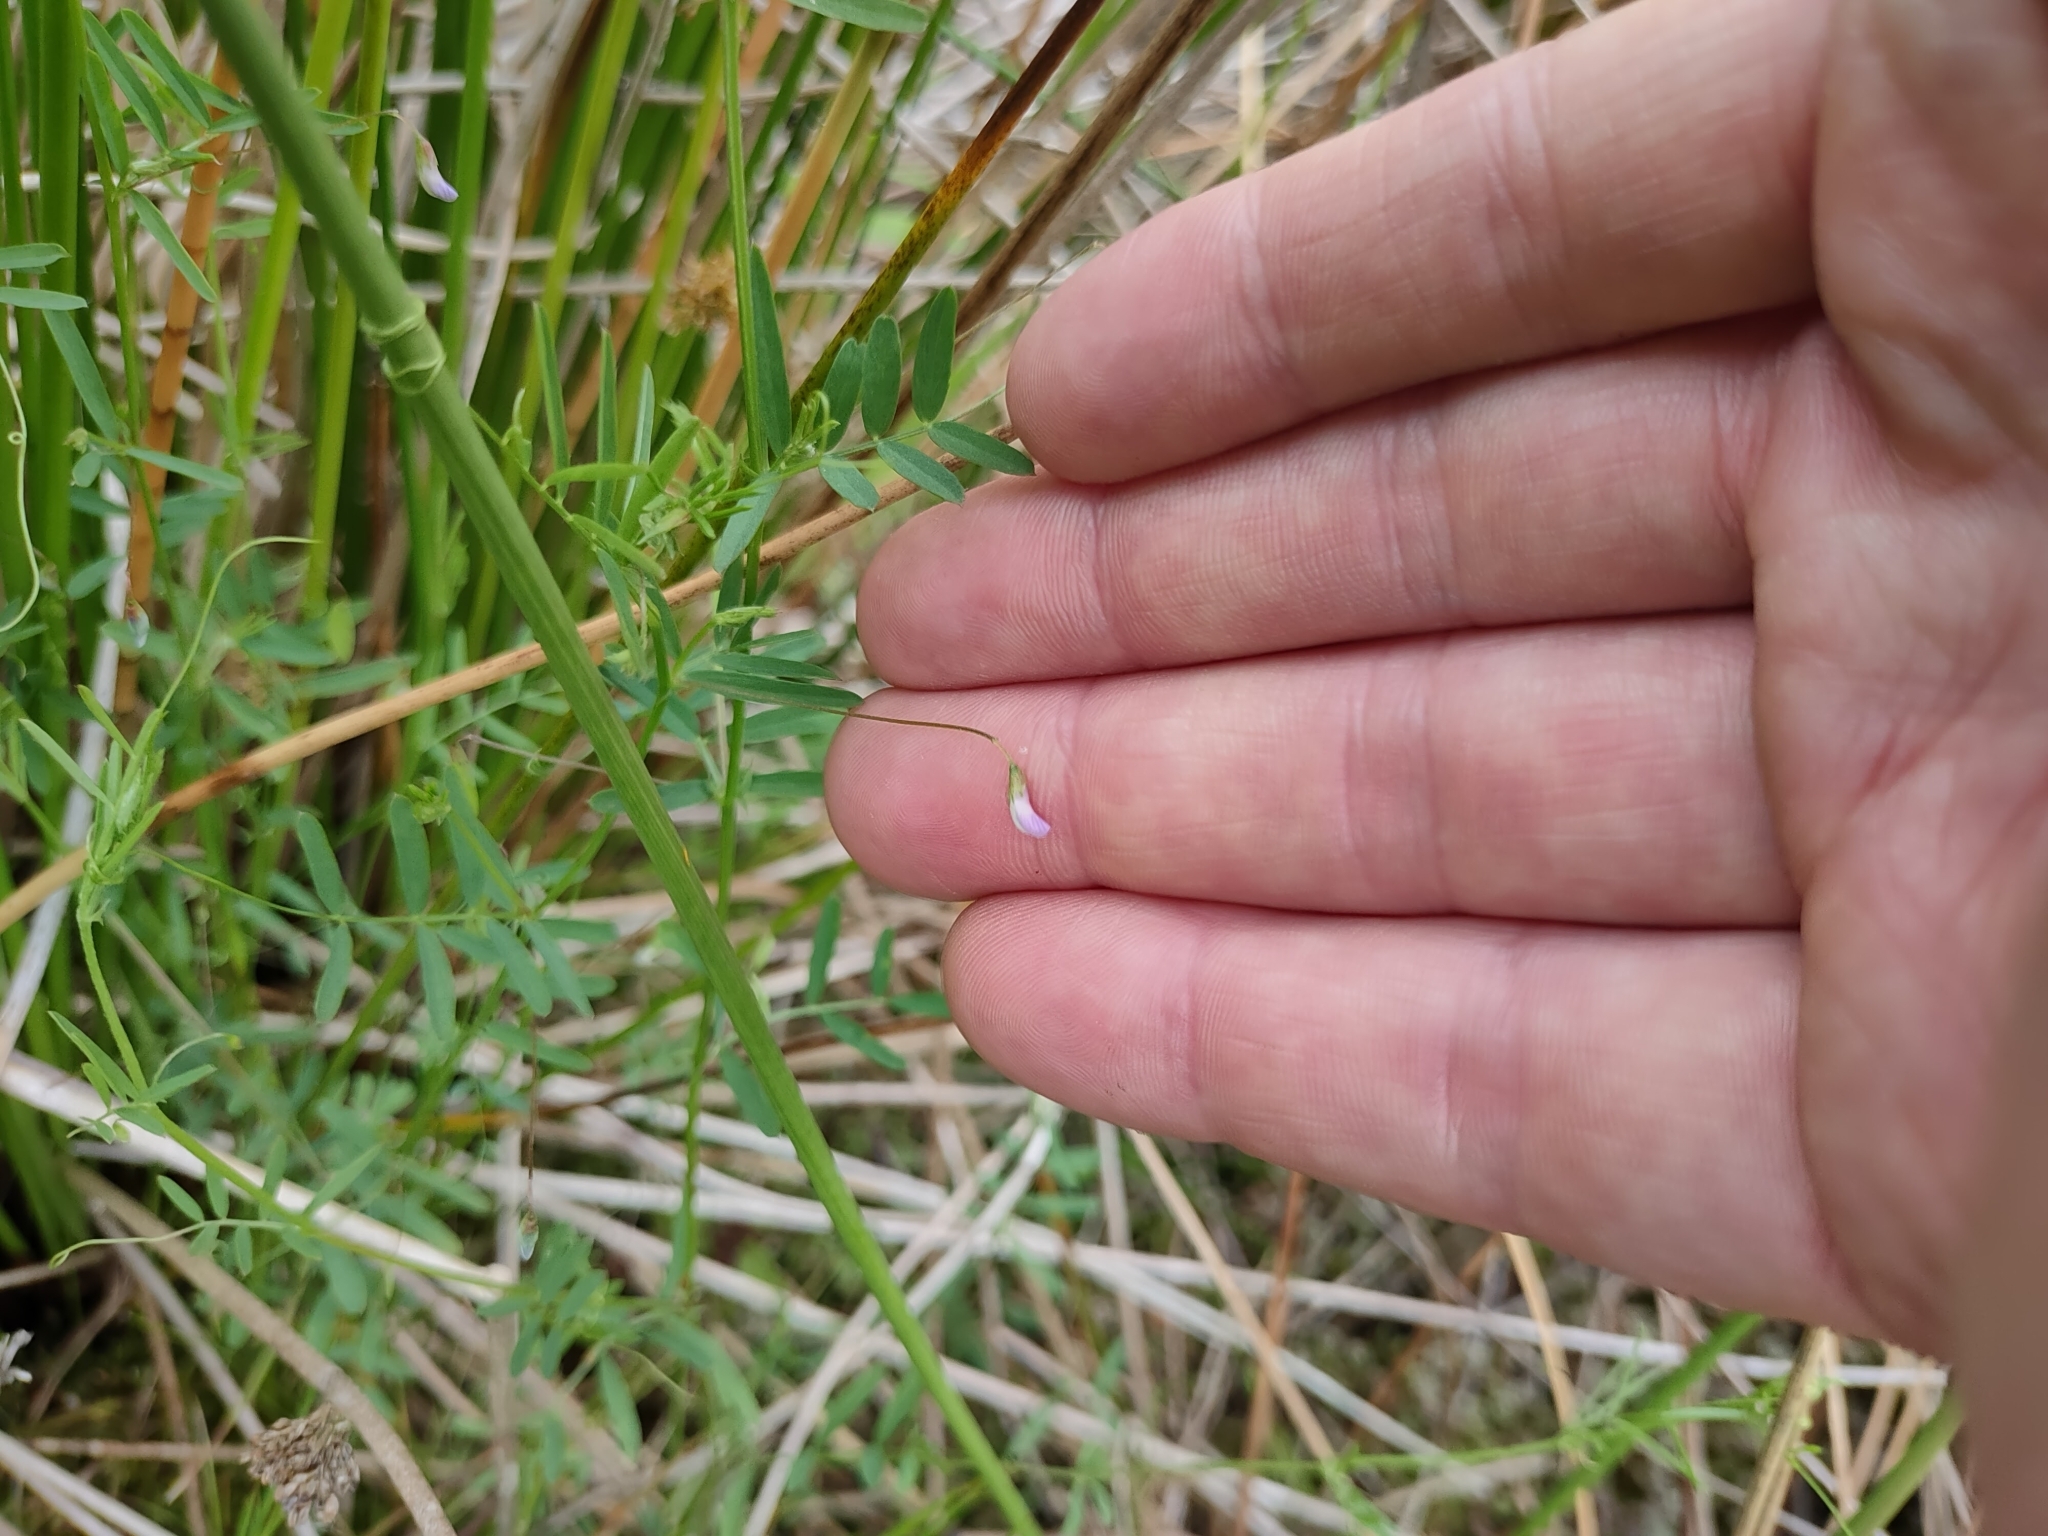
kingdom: Plantae
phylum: Tracheophyta
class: Magnoliopsida
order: Fabales
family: Fabaceae
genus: Vicia
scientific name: Vicia tetrasperma
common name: Smooth tare
